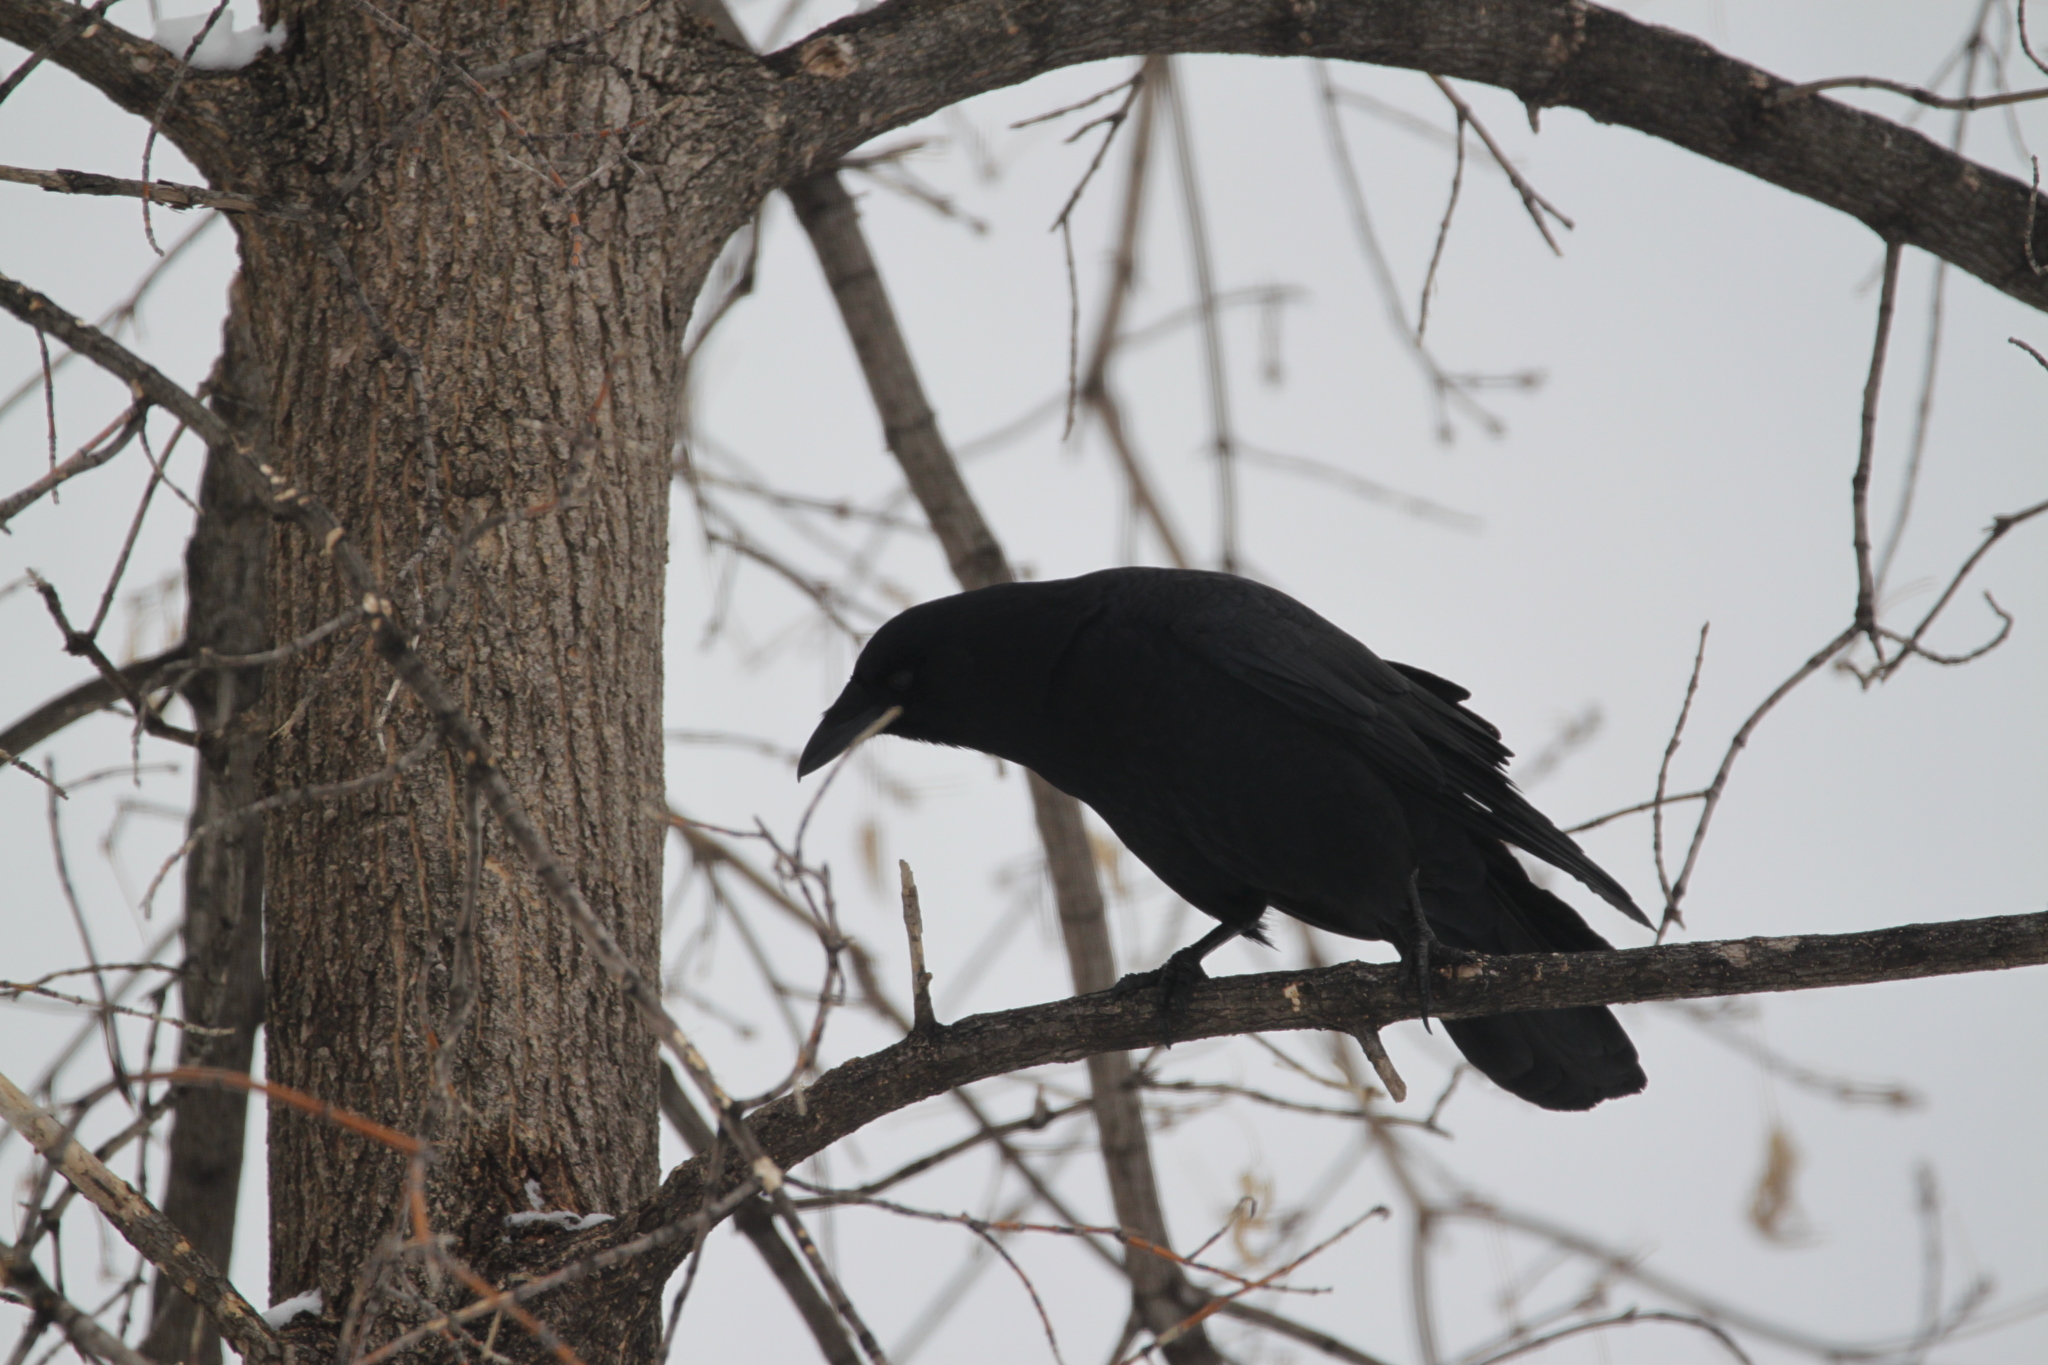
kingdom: Animalia
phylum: Chordata
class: Aves
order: Passeriformes
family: Corvidae
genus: Corvus
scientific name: Corvus brachyrhynchos
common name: American crow
